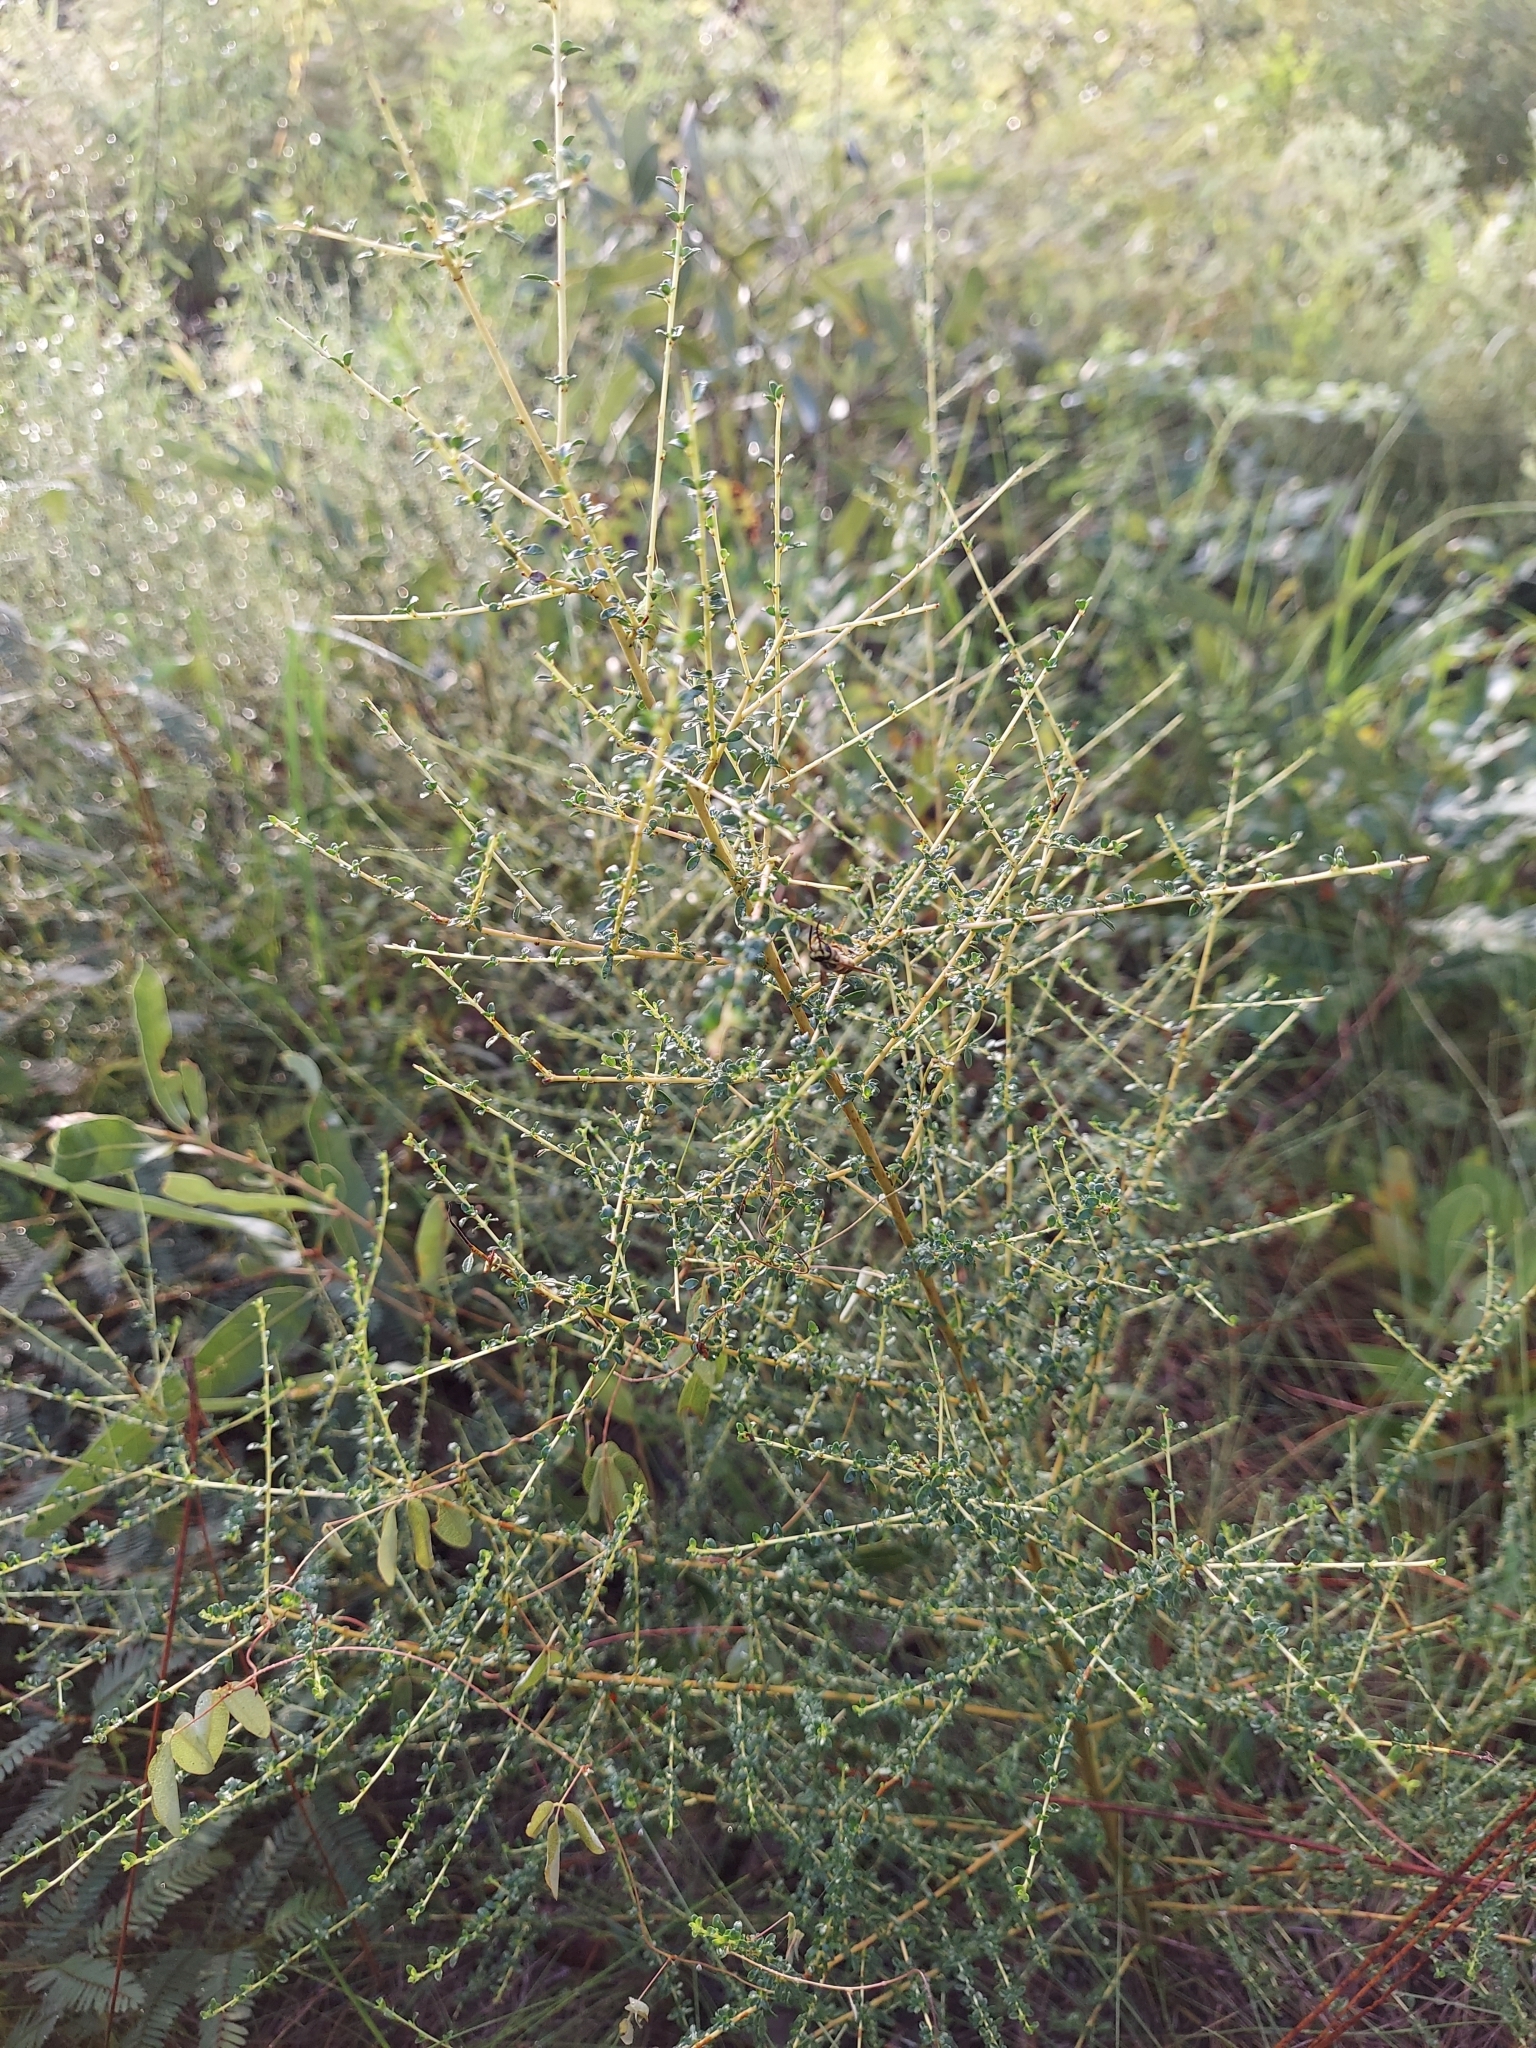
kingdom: Plantae
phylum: Tracheophyta
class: Magnoliopsida
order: Rosales
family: Rhamnaceae
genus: Ceanothus
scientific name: Ceanothus microphyllus
